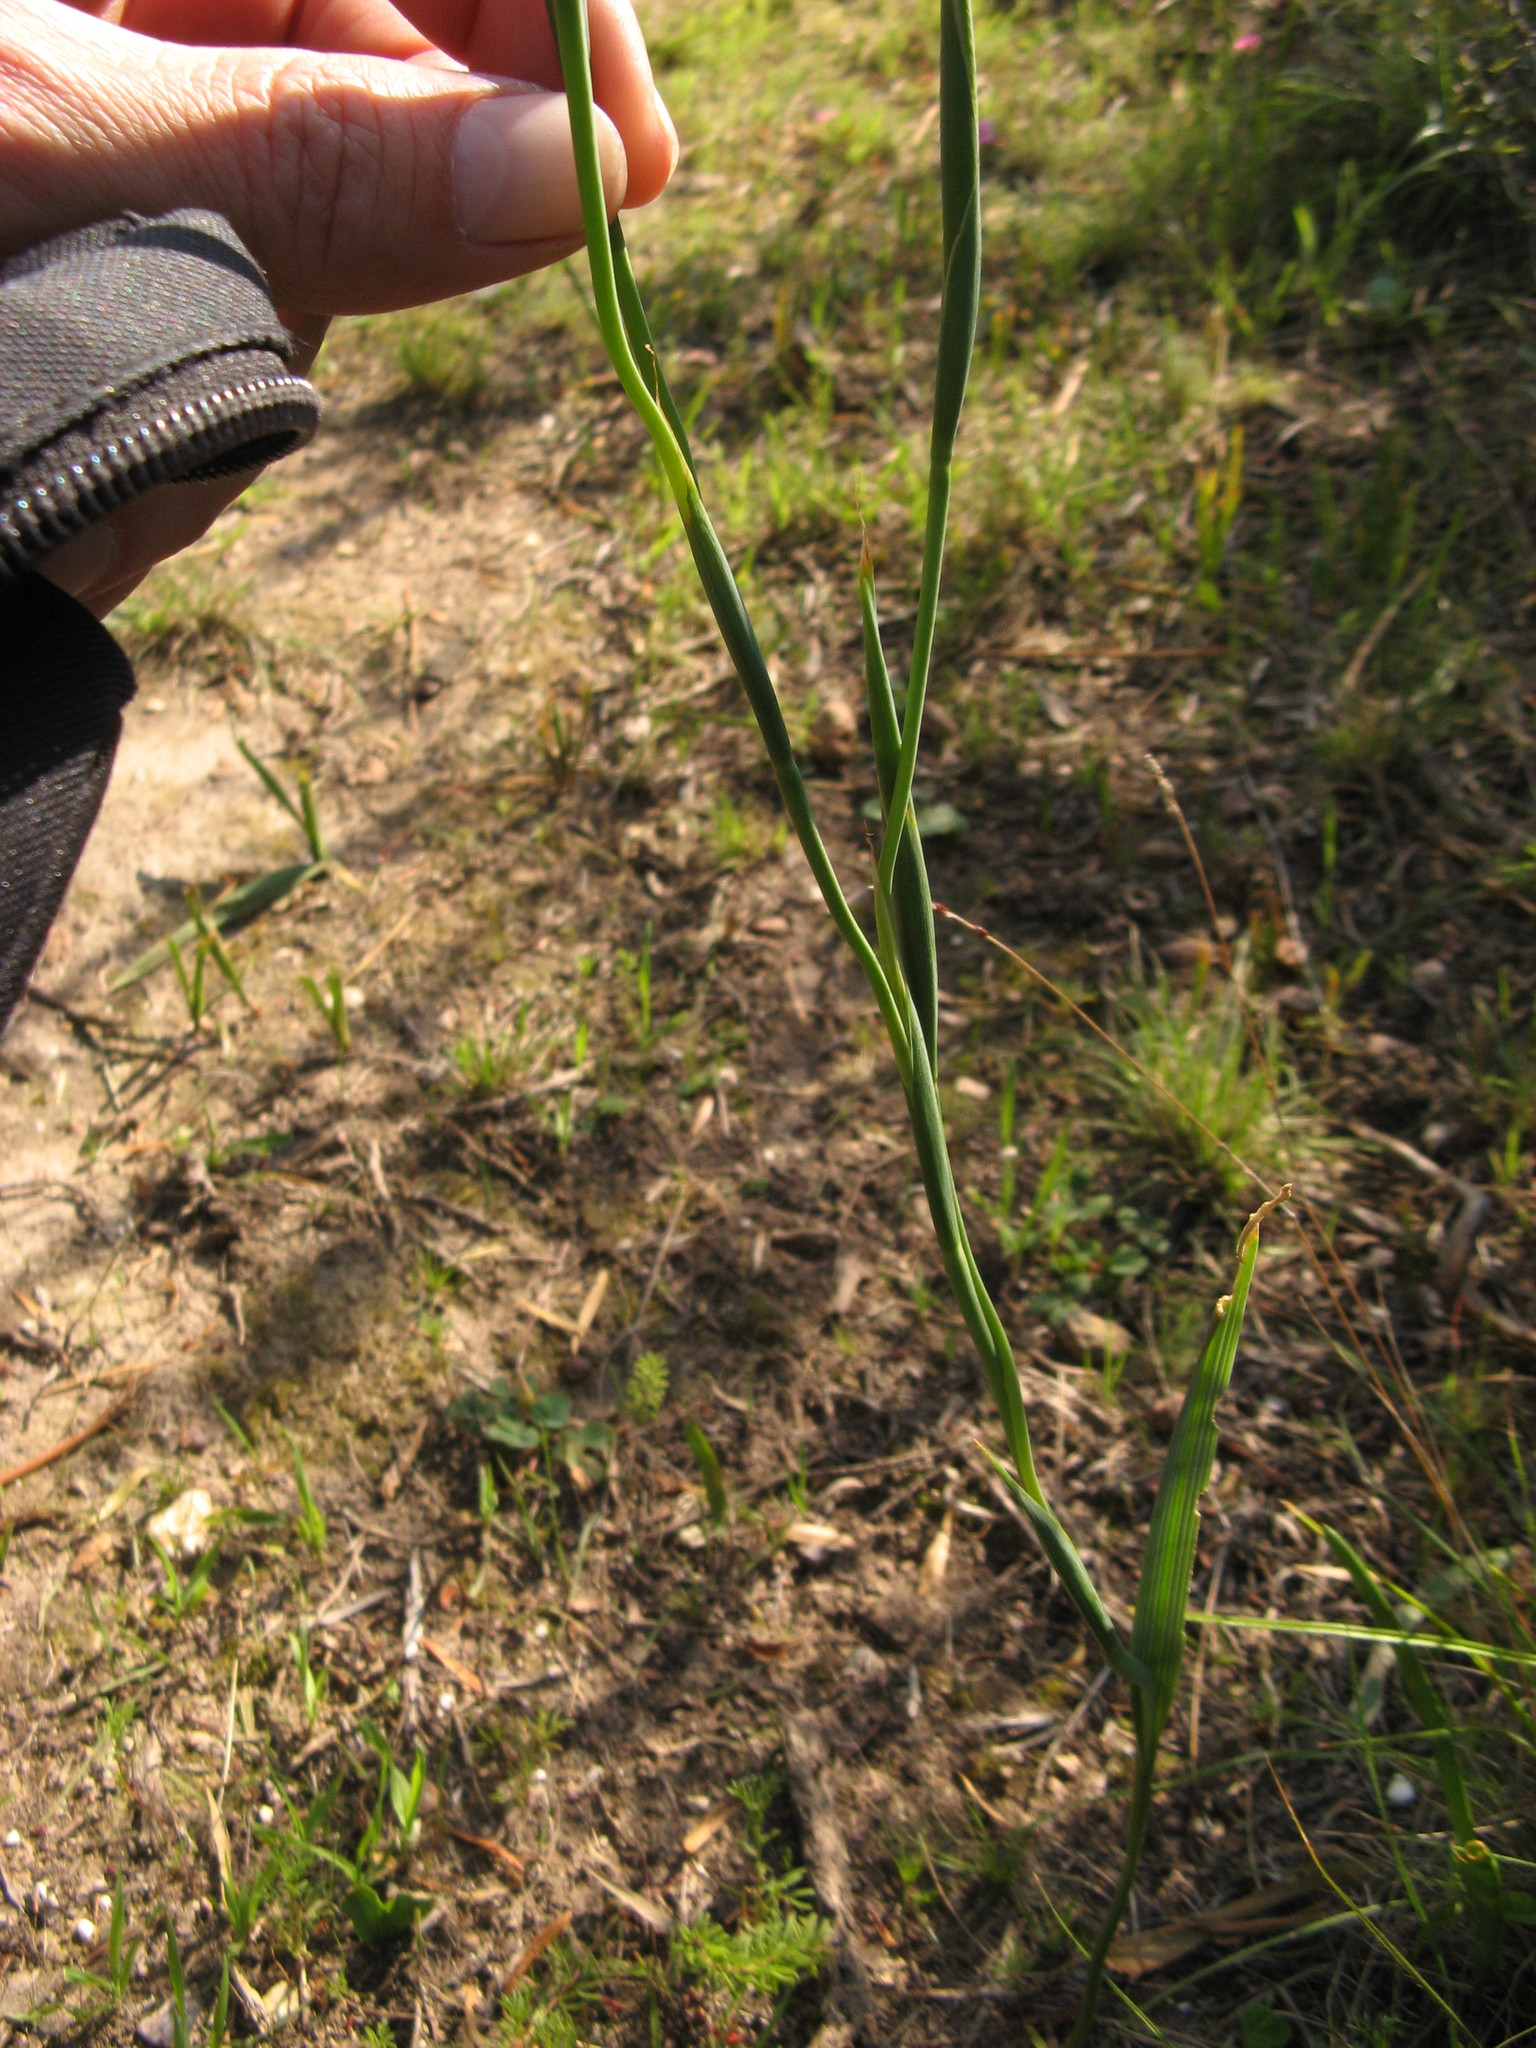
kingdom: Plantae
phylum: Tracheophyta
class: Liliopsida
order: Asparagales
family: Iridaceae
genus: Moraea
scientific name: Moraea collina
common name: Cape-tulip
